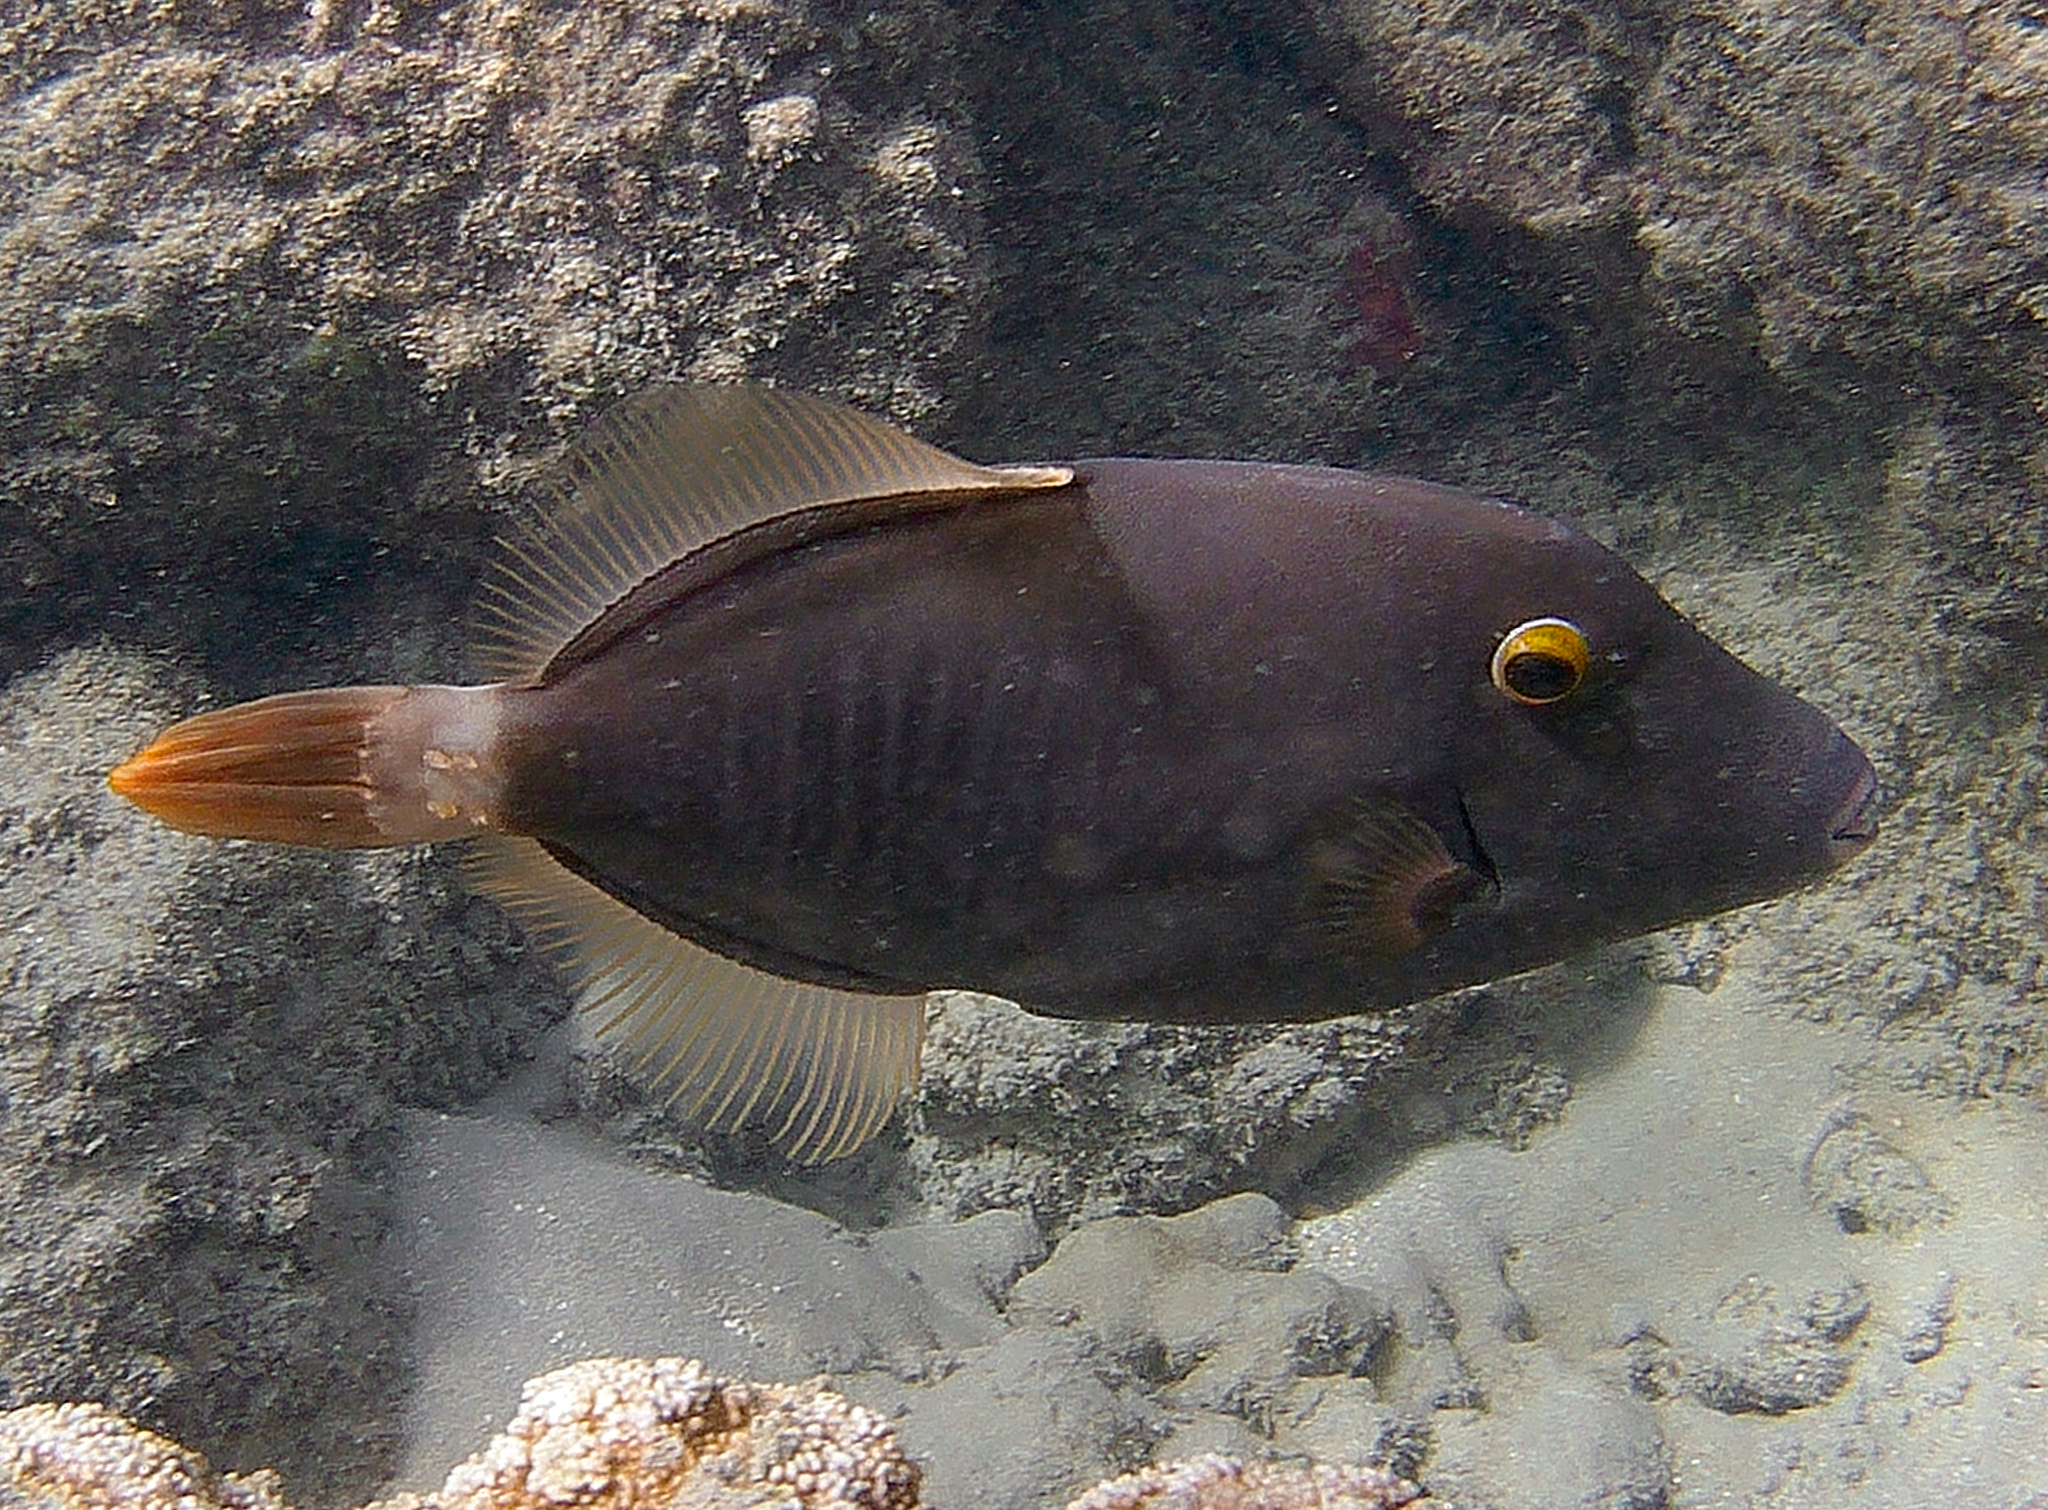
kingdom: Animalia
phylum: Chordata
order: Tetraodontiformes
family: Monacanthidae
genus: Cantherhines
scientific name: Cantherhines dumerilii
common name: Barred filefish
